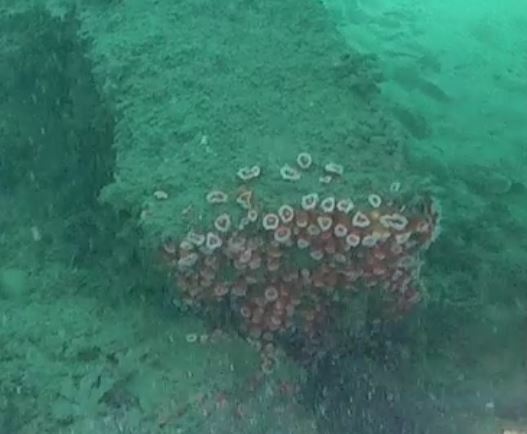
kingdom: Animalia
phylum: Cnidaria
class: Anthozoa
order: Corallimorpharia
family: Corallimorphidae
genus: Corynactis
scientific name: Corynactis californica
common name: Strawberry corallimorpharian
